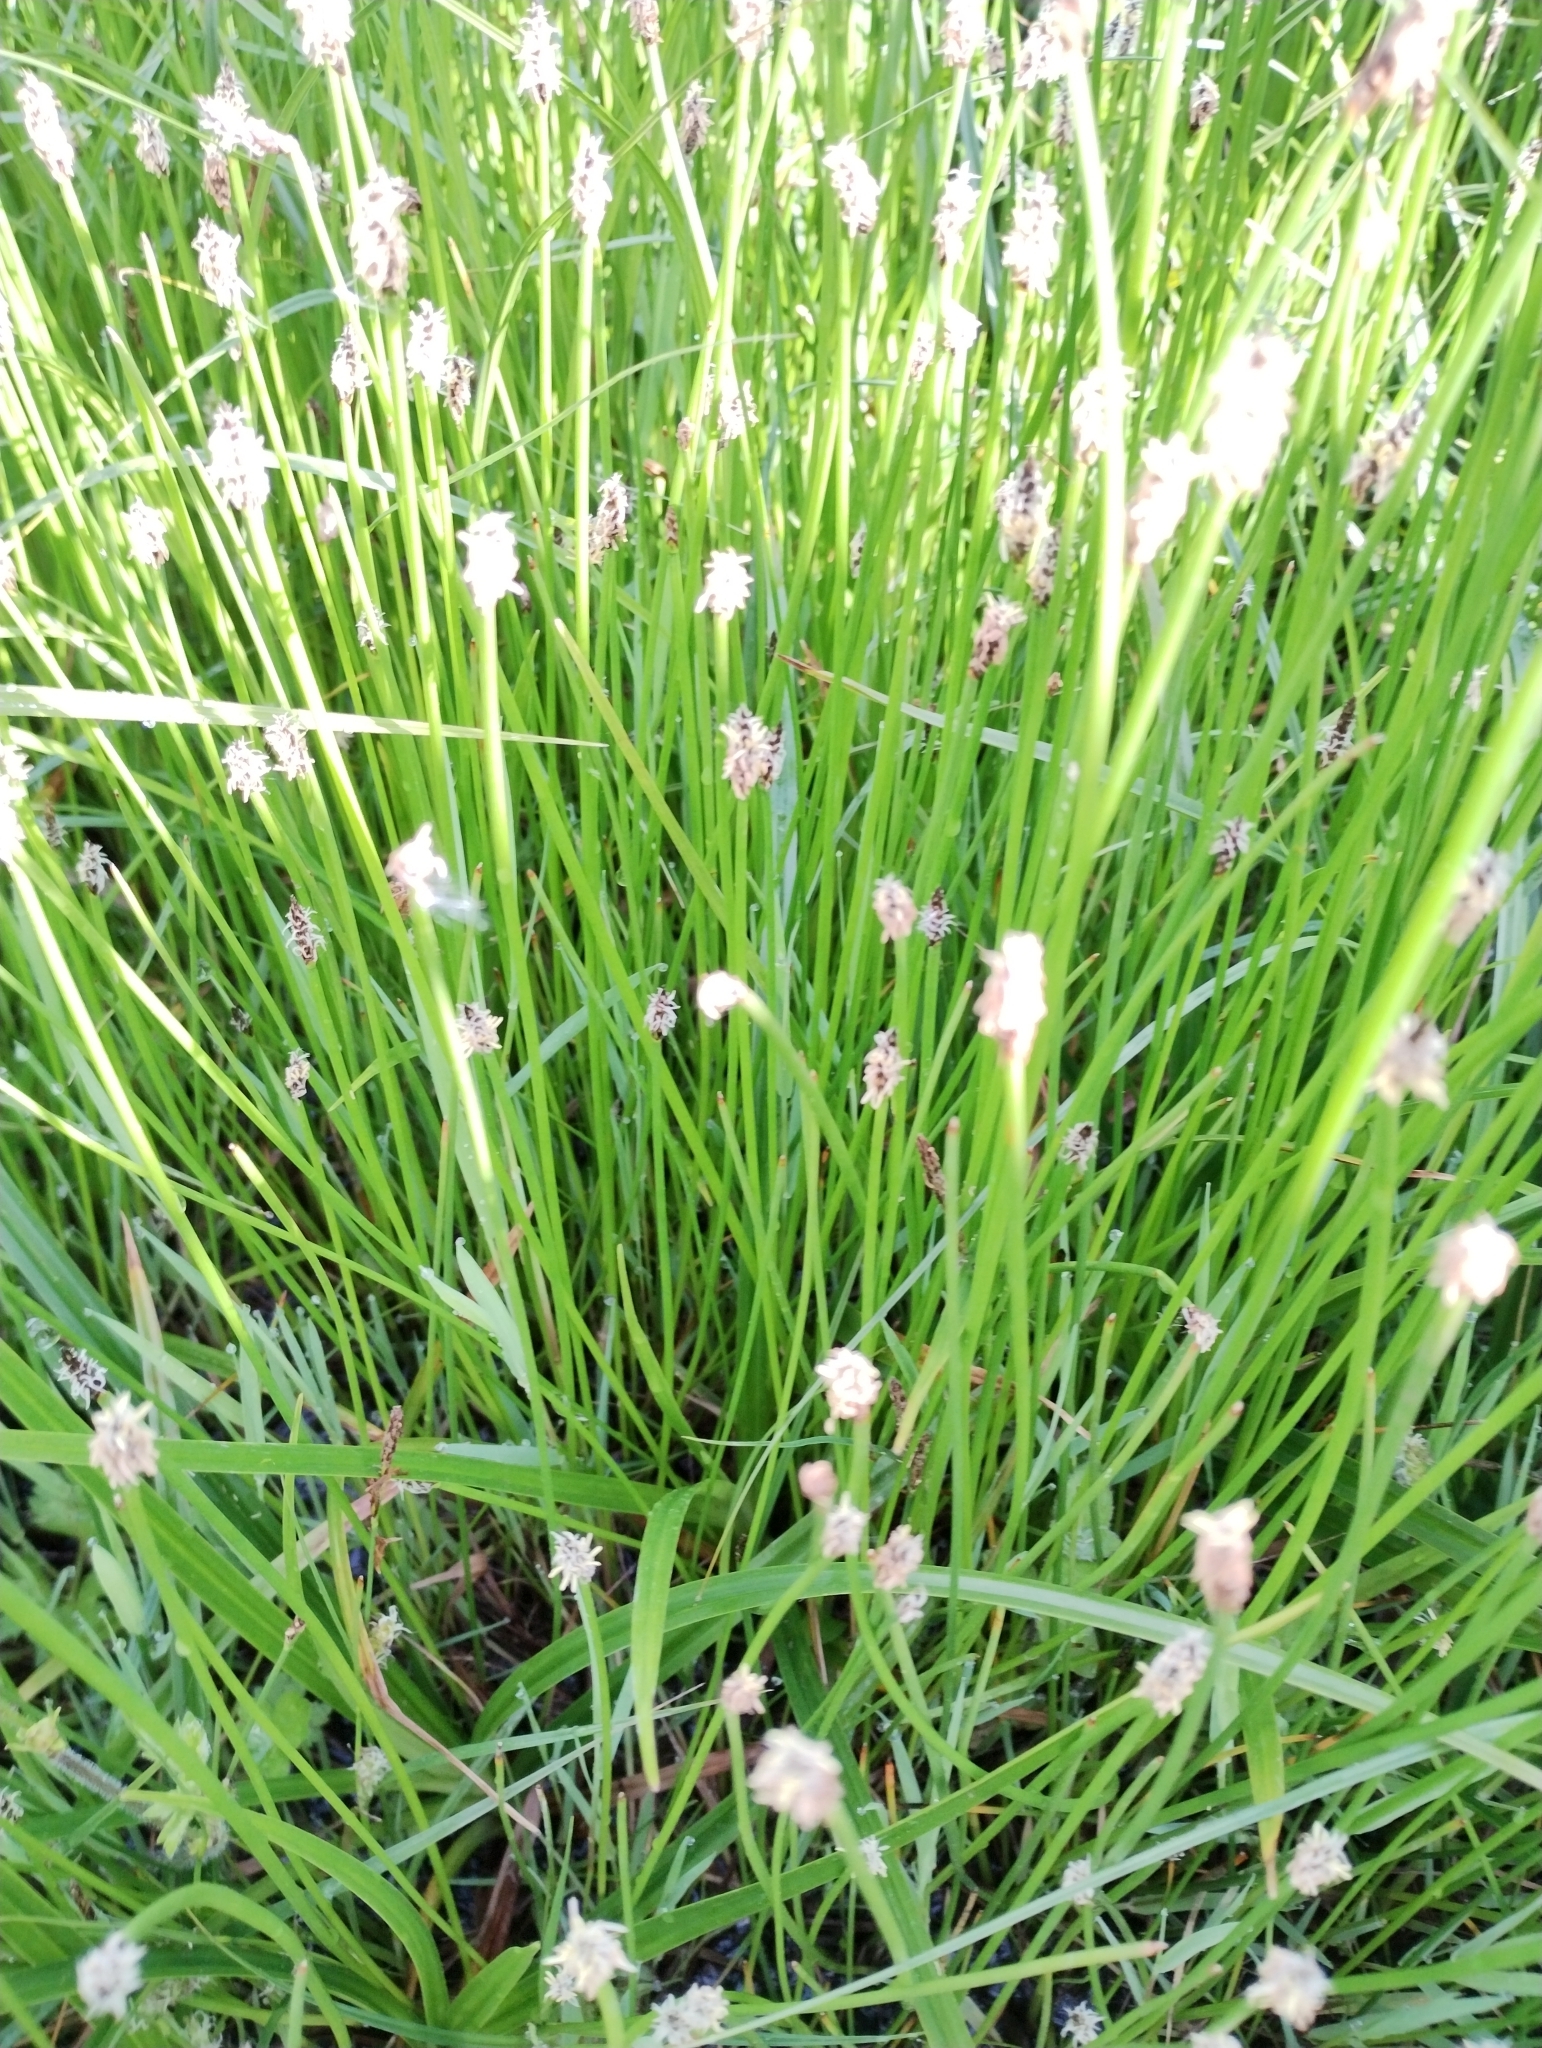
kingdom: Plantae
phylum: Tracheophyta
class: Liliopsida
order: Poales
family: Cyperaceae
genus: Eleocharis
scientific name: Eleocharis palustris
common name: Common spike-rush
